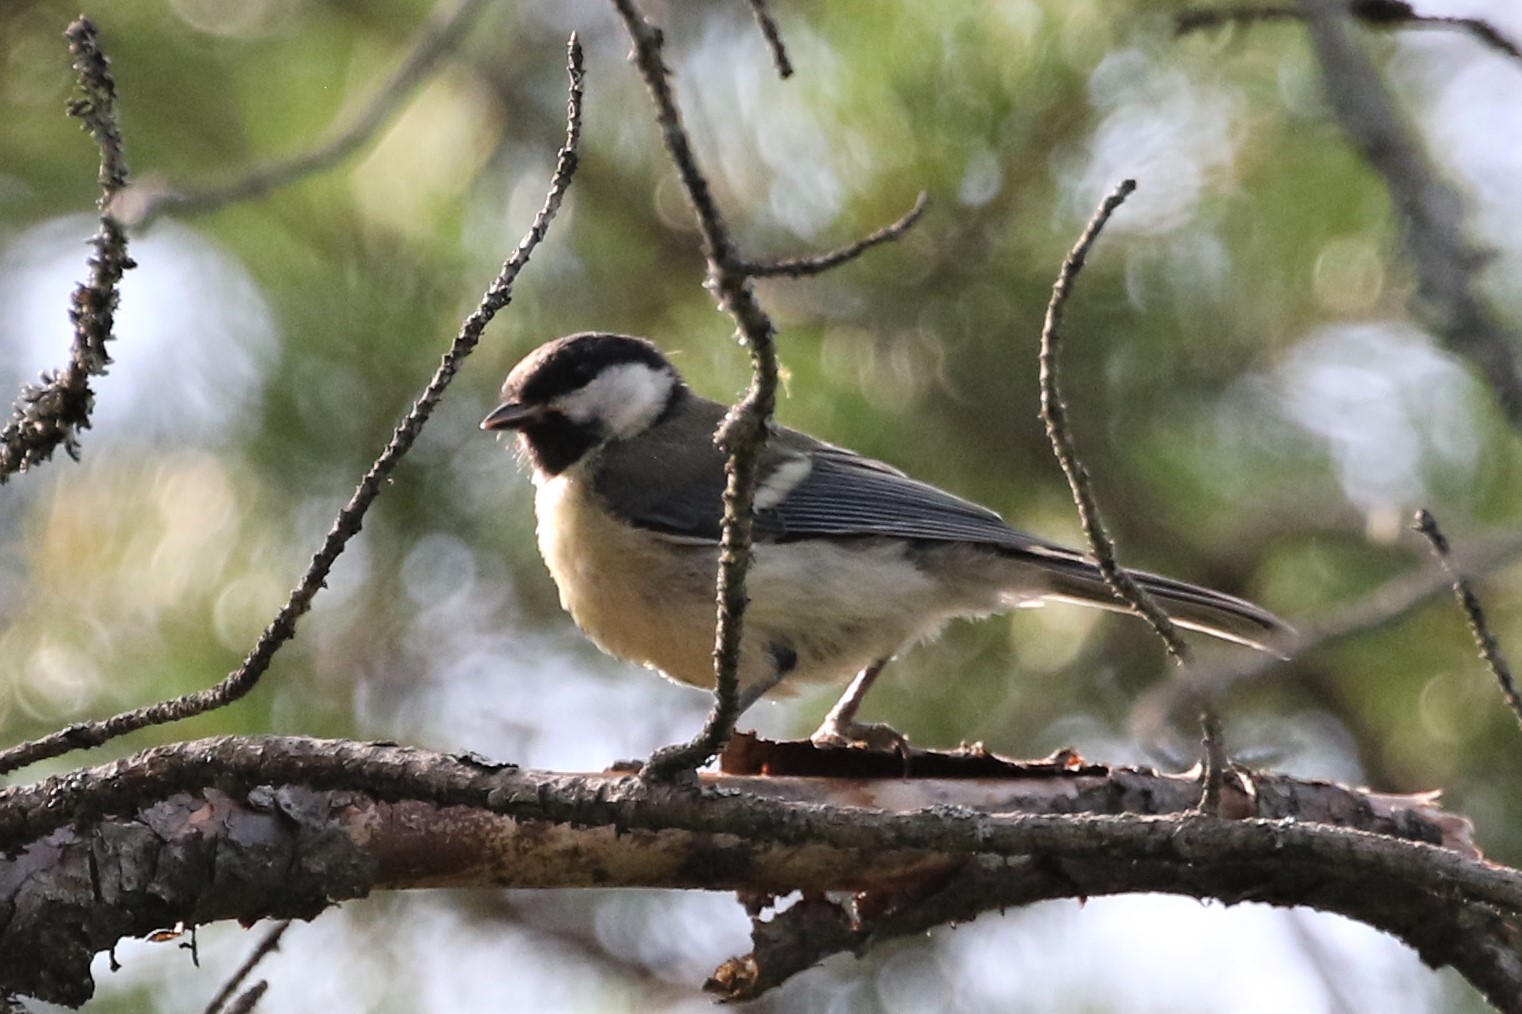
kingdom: Animalia
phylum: Chordata
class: Aves
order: Passeriformes
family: Paridae
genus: Parus
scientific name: Parus major
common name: Great tit
